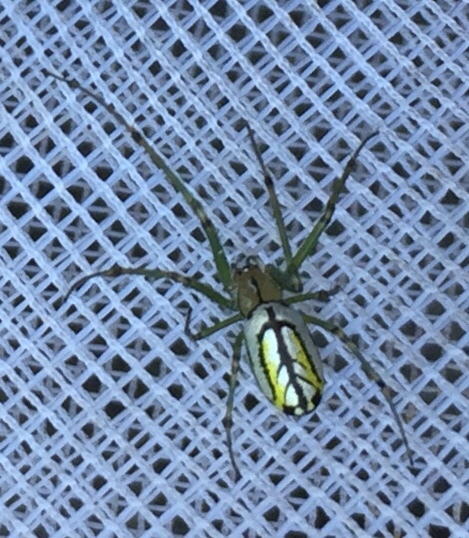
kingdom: Animalia
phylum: Arthropoda
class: Arachnida
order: Araneae
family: Tetragnathidae
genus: Leucauge
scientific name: Leucauge venusta
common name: Longjawed orb weavers
